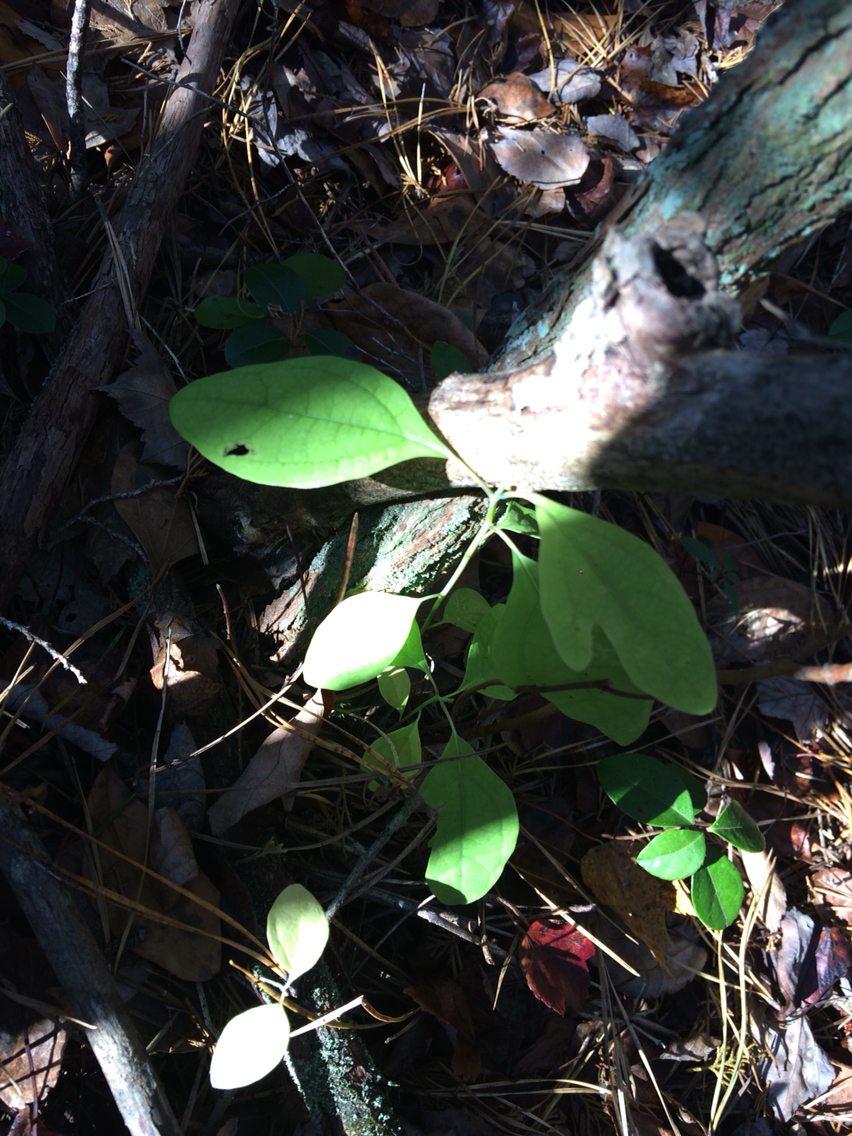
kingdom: Plantae
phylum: Tracheophyta
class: Magnoliopsida
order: Laurales
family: Lauraceae
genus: Sassafras
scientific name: Sassafras albidum
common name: Sassafras
